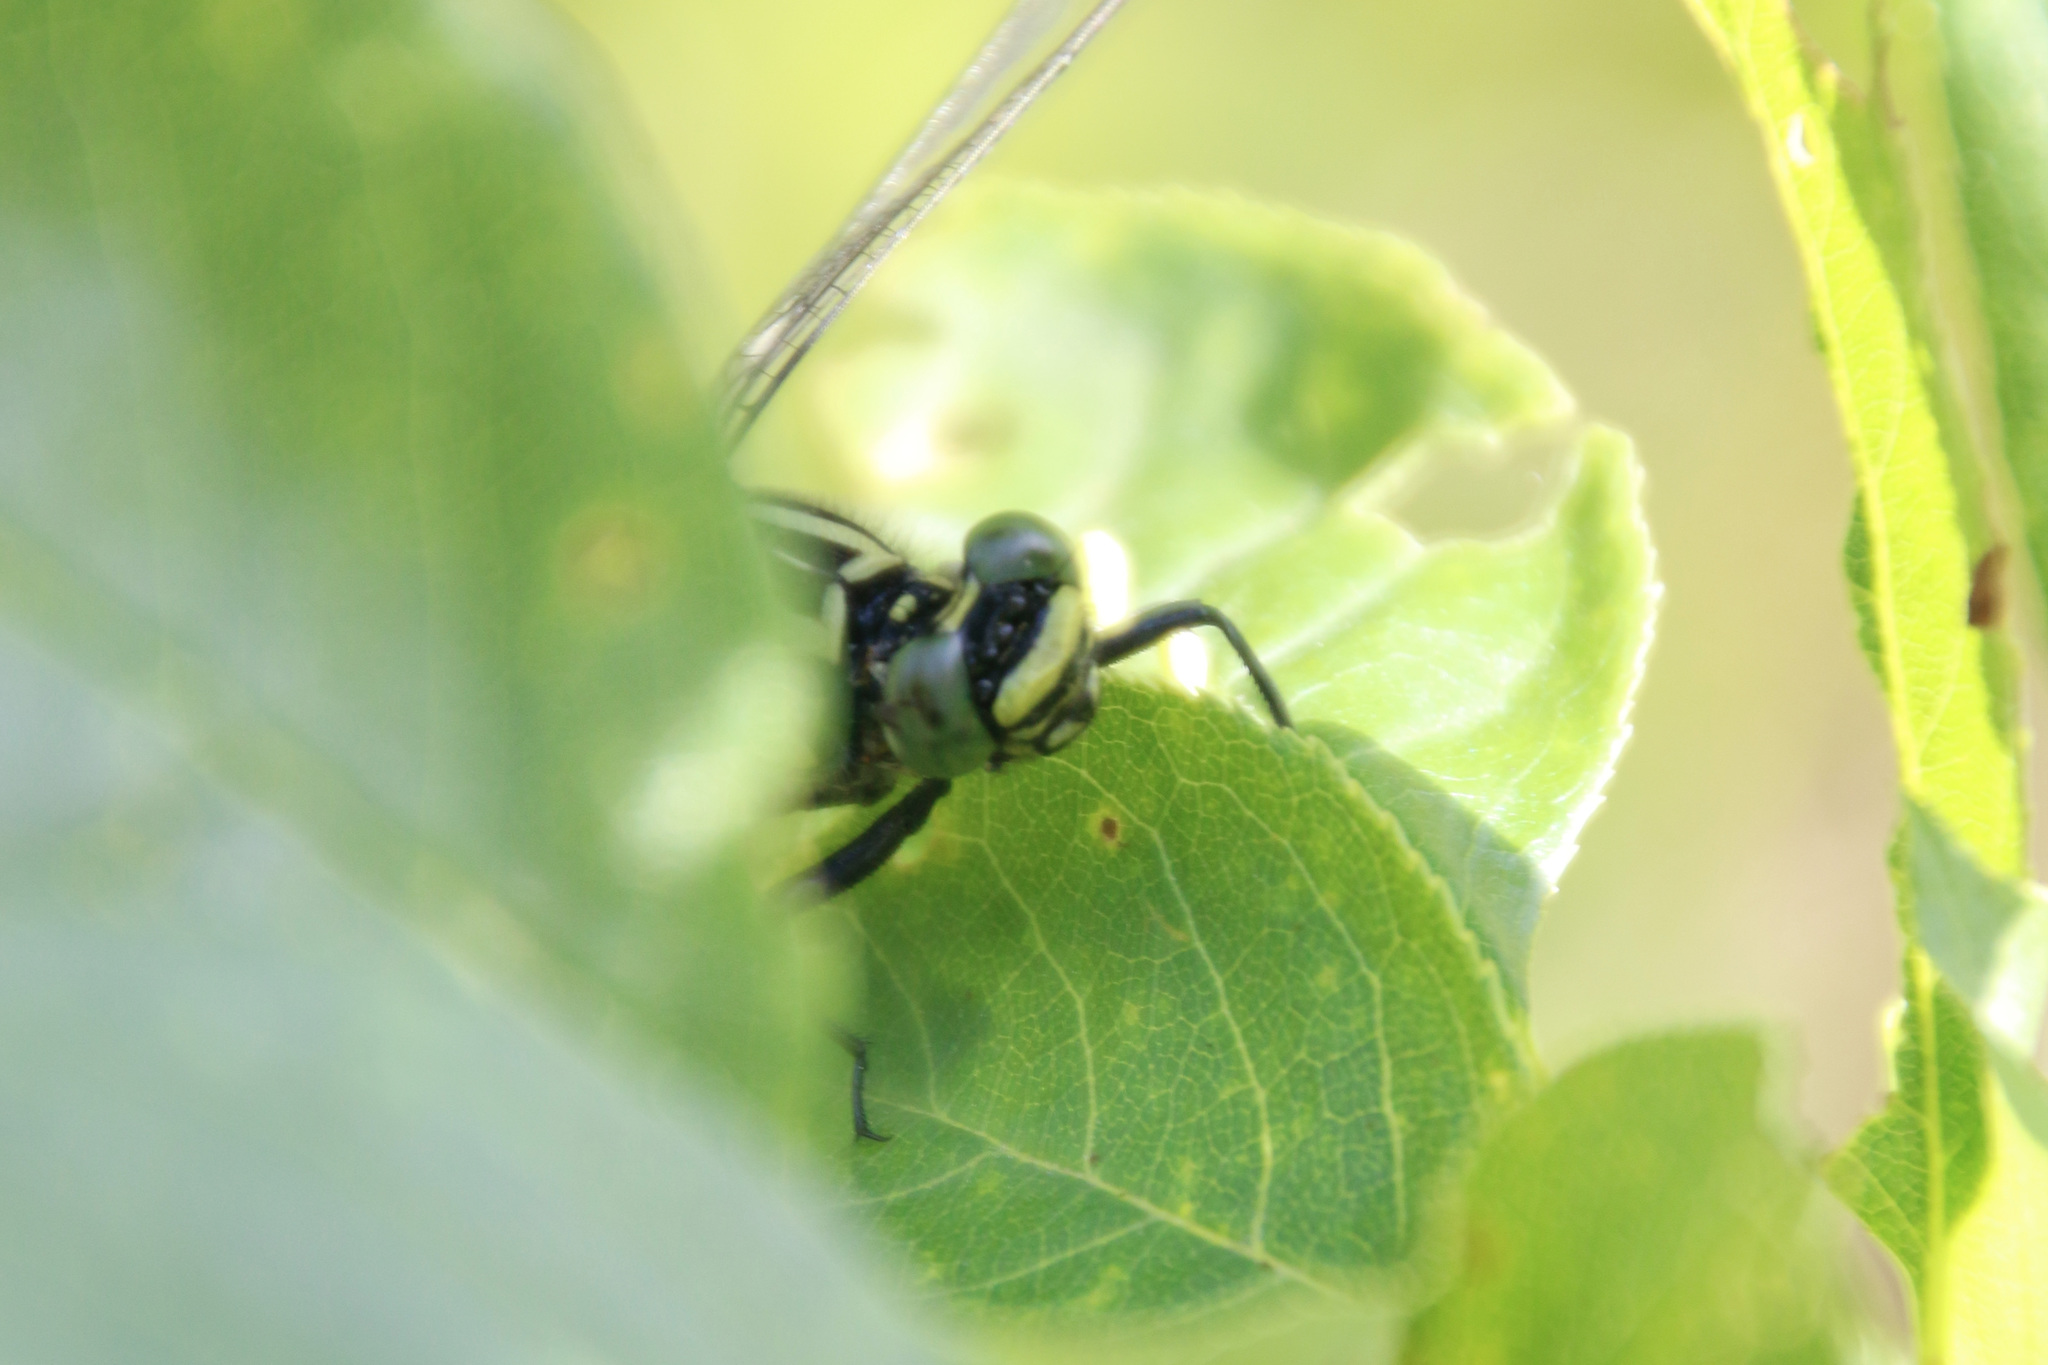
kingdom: Animalia
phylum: Arthropoda
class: Insecta
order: Odonata
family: Gomphidae
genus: Gomphurus
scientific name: Gomphurus vastus
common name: Cobra clubtail
